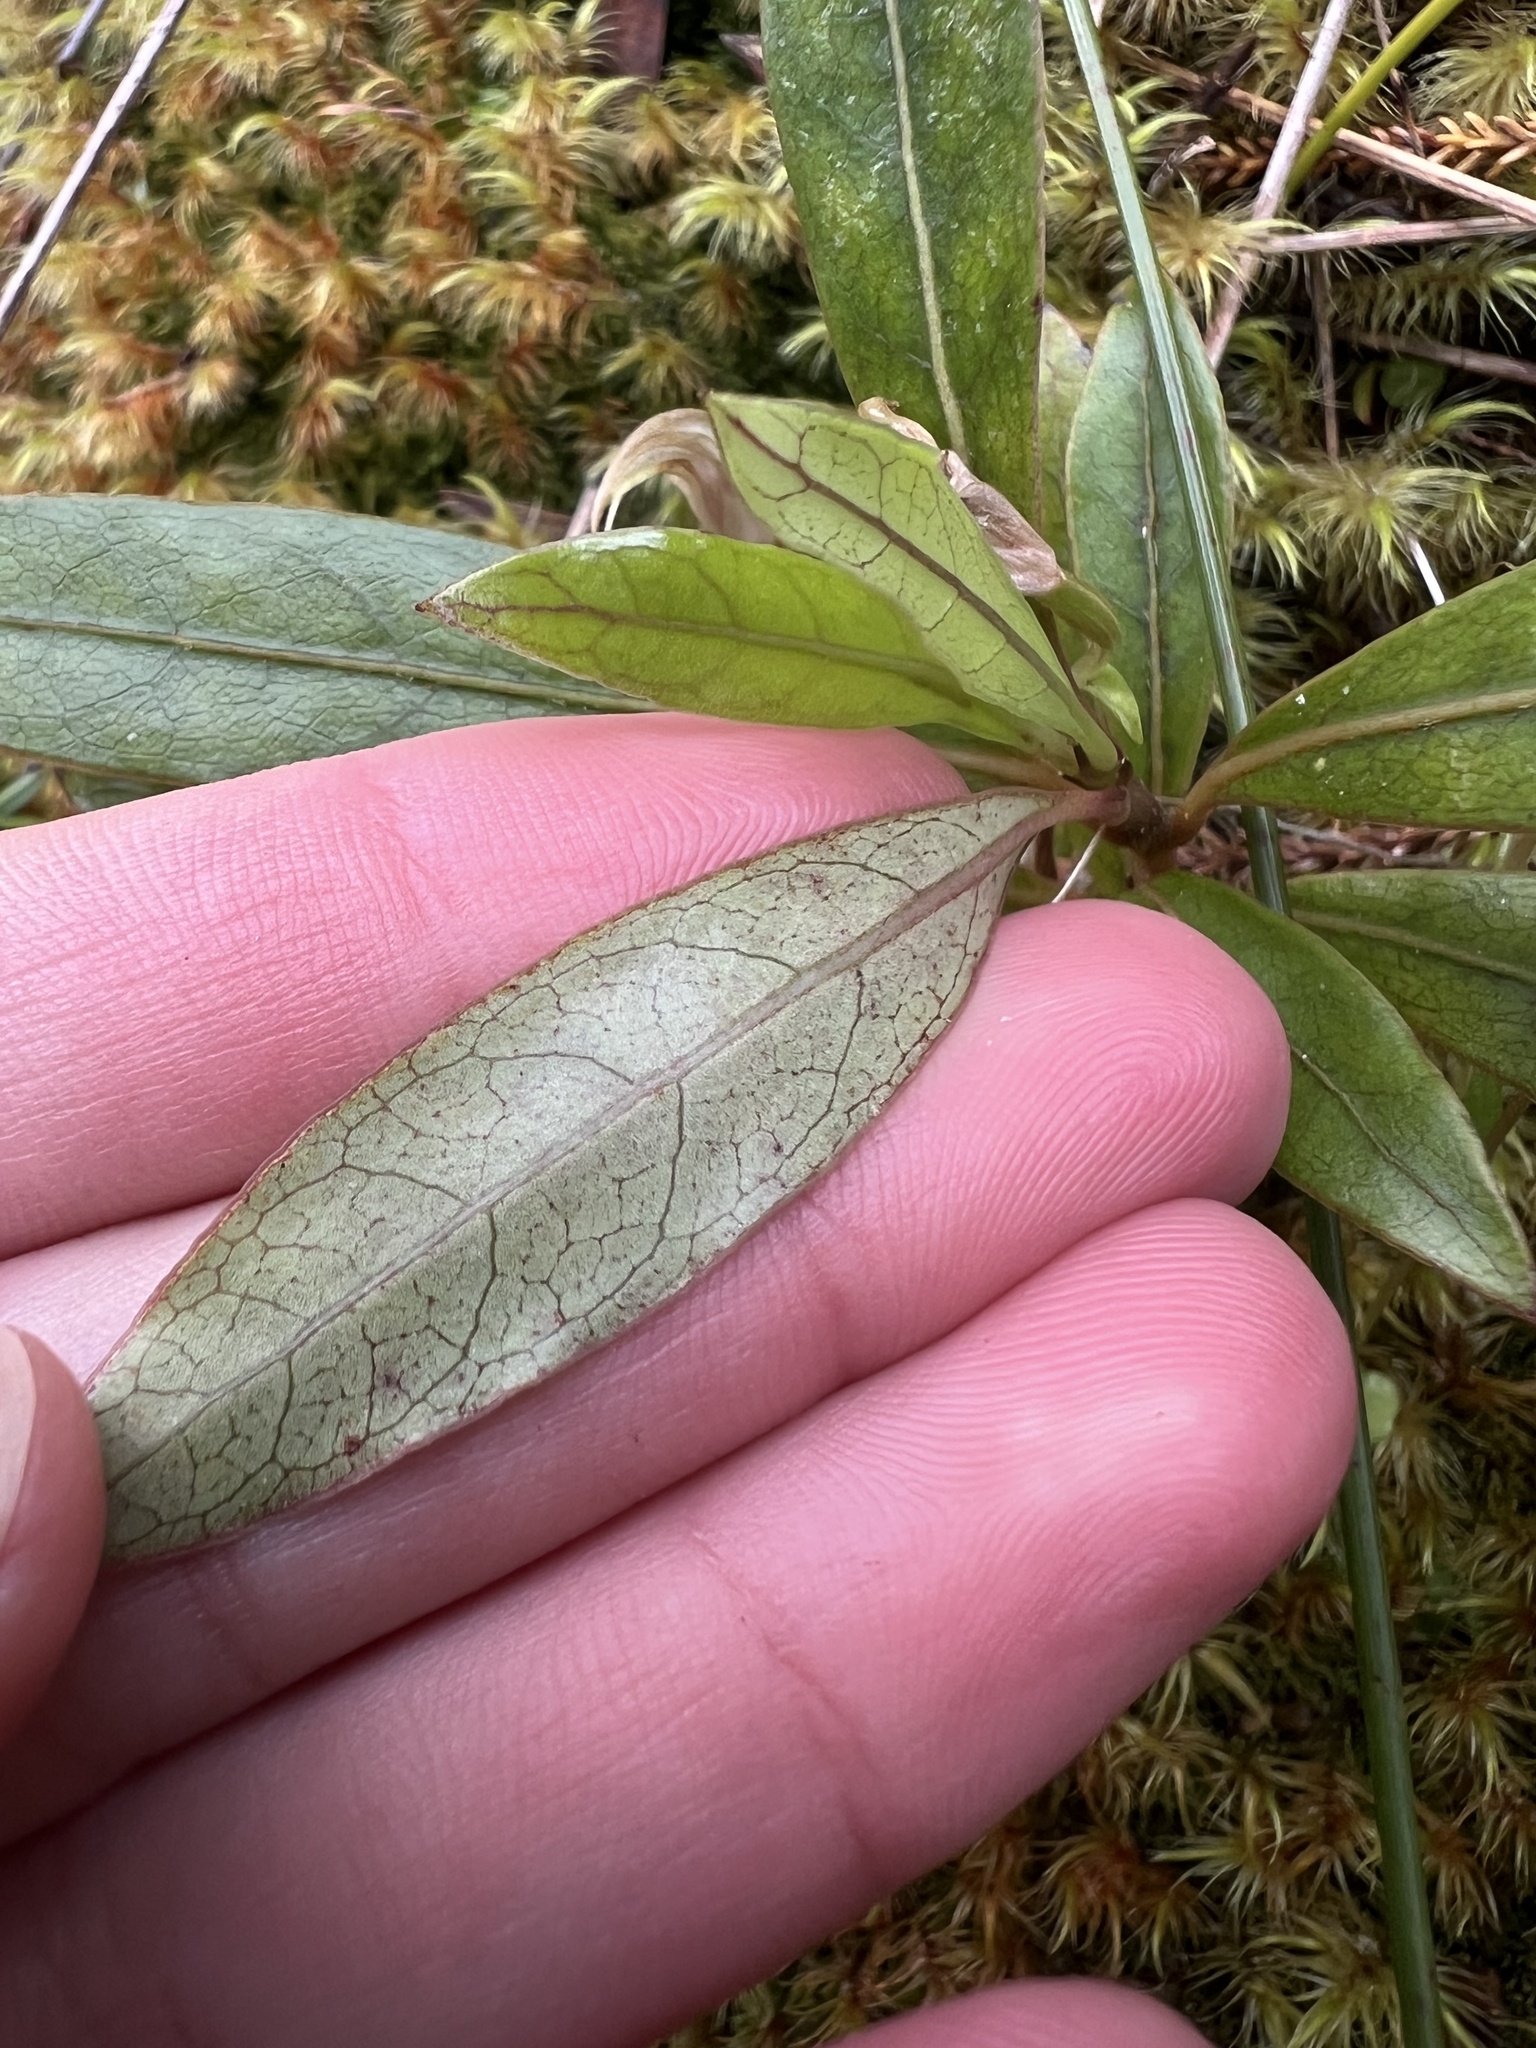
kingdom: Plantae
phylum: Tracheophyta
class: Magnoliopsida
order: Gentianales
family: Rubiaceae
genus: Coprosma
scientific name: Coprosma dodonaeifolia
